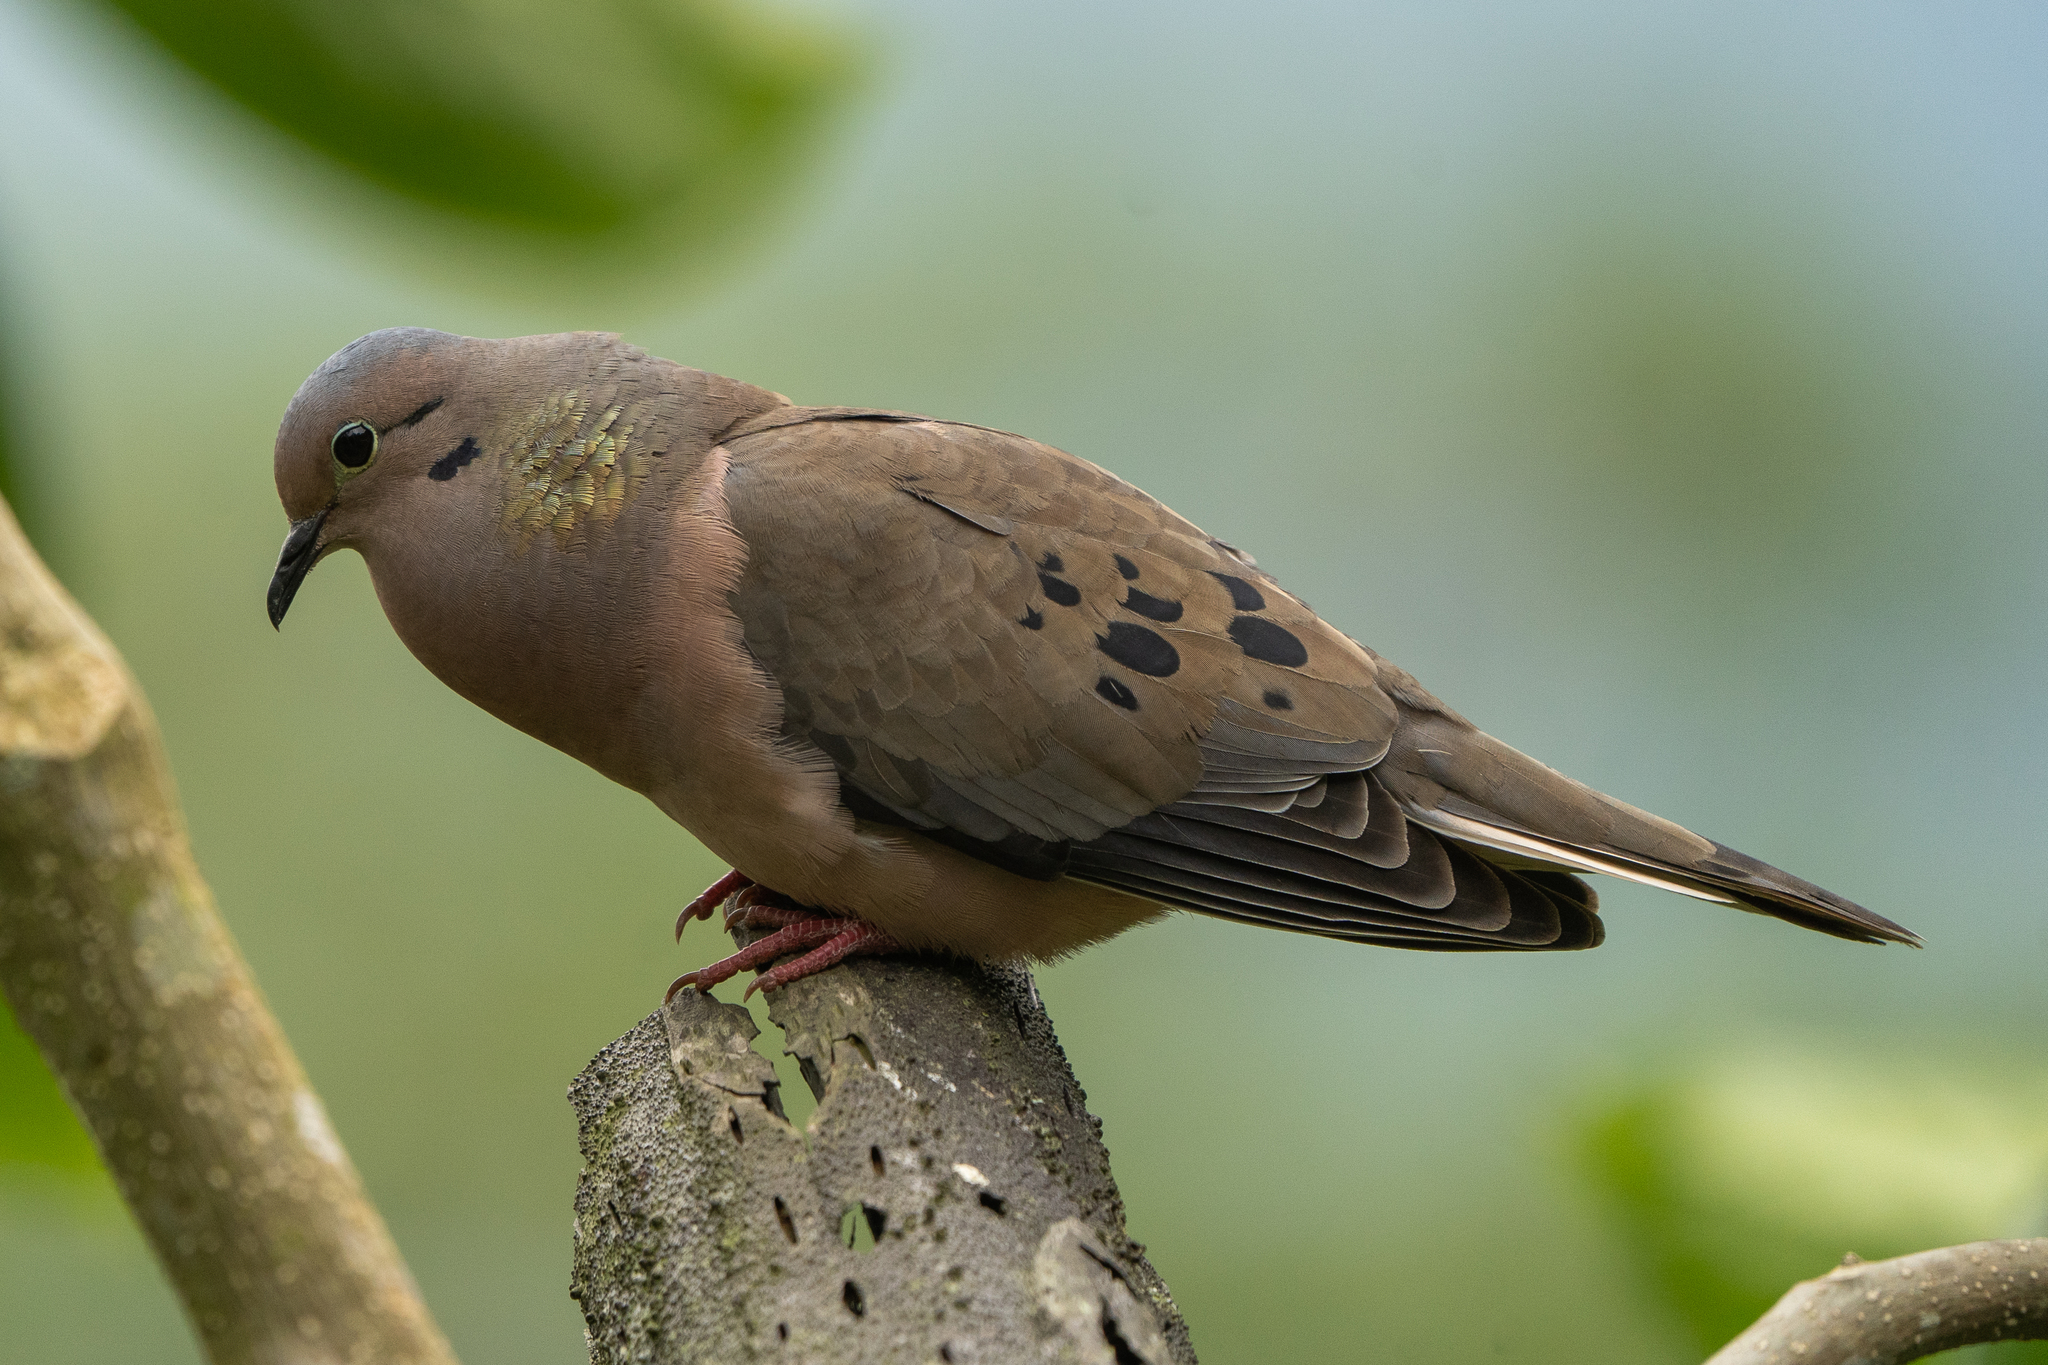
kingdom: Animalia
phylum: Chordata
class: Aves
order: Columbiformes
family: Columbidae
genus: Zenaida
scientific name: Zenaida auriculata
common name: Eared dove
